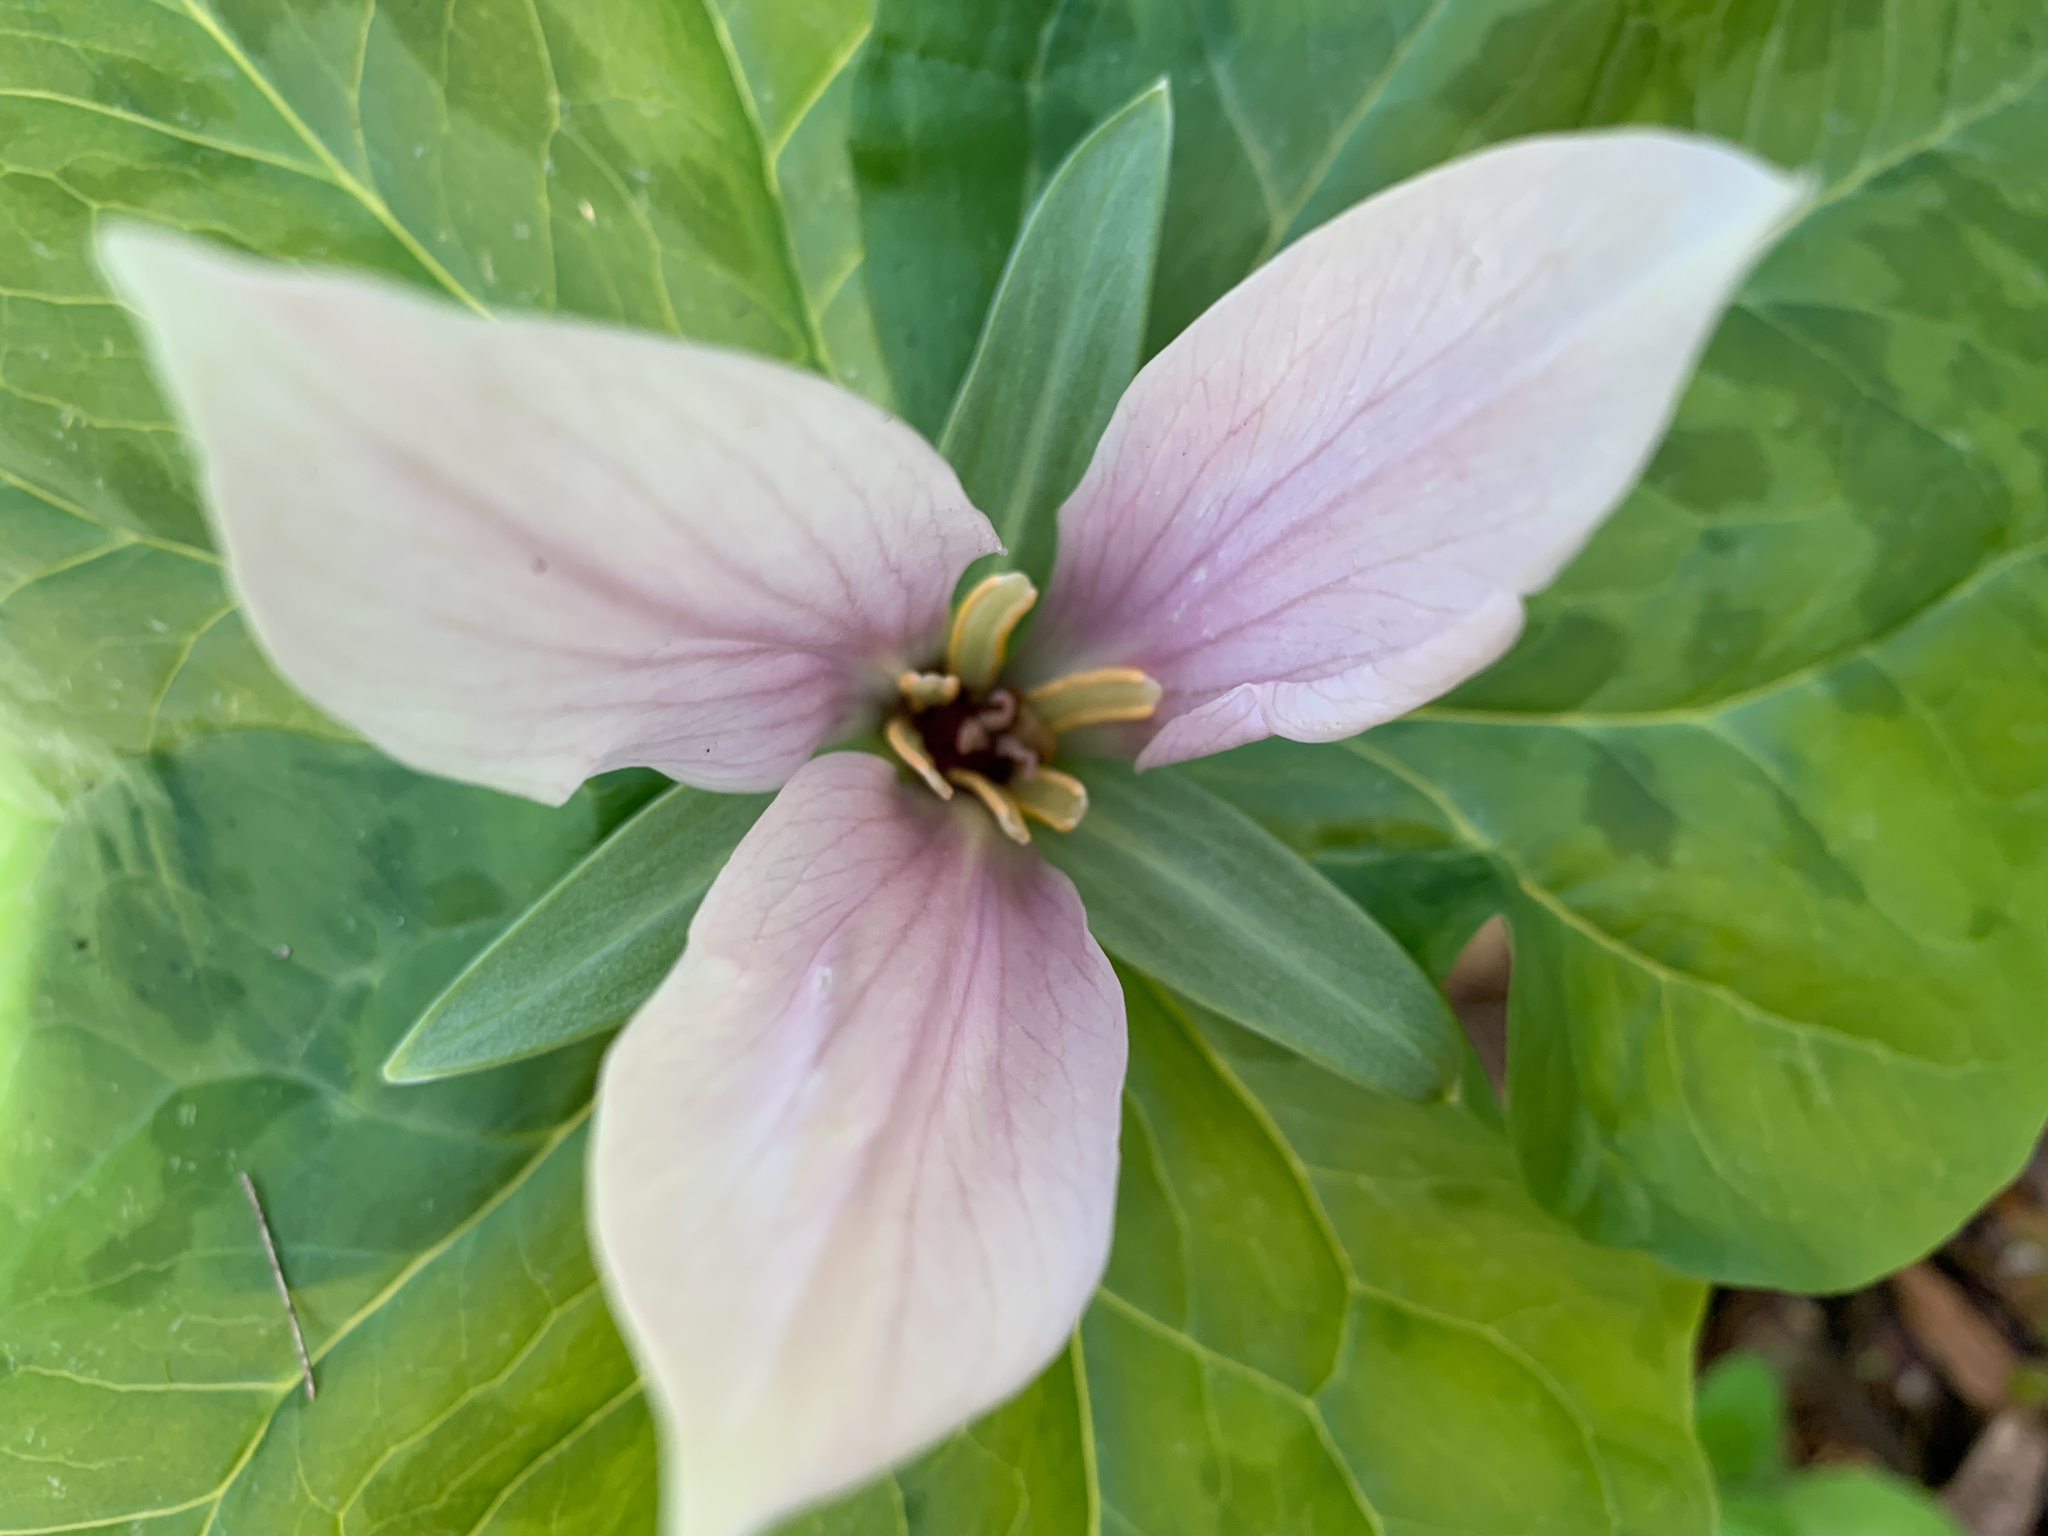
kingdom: Plantae
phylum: Tracheophyta
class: Liliopsida
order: Liliales
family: Melanthiaceae
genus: Trillium
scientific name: Trillium albidum
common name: Freeman's trillium
